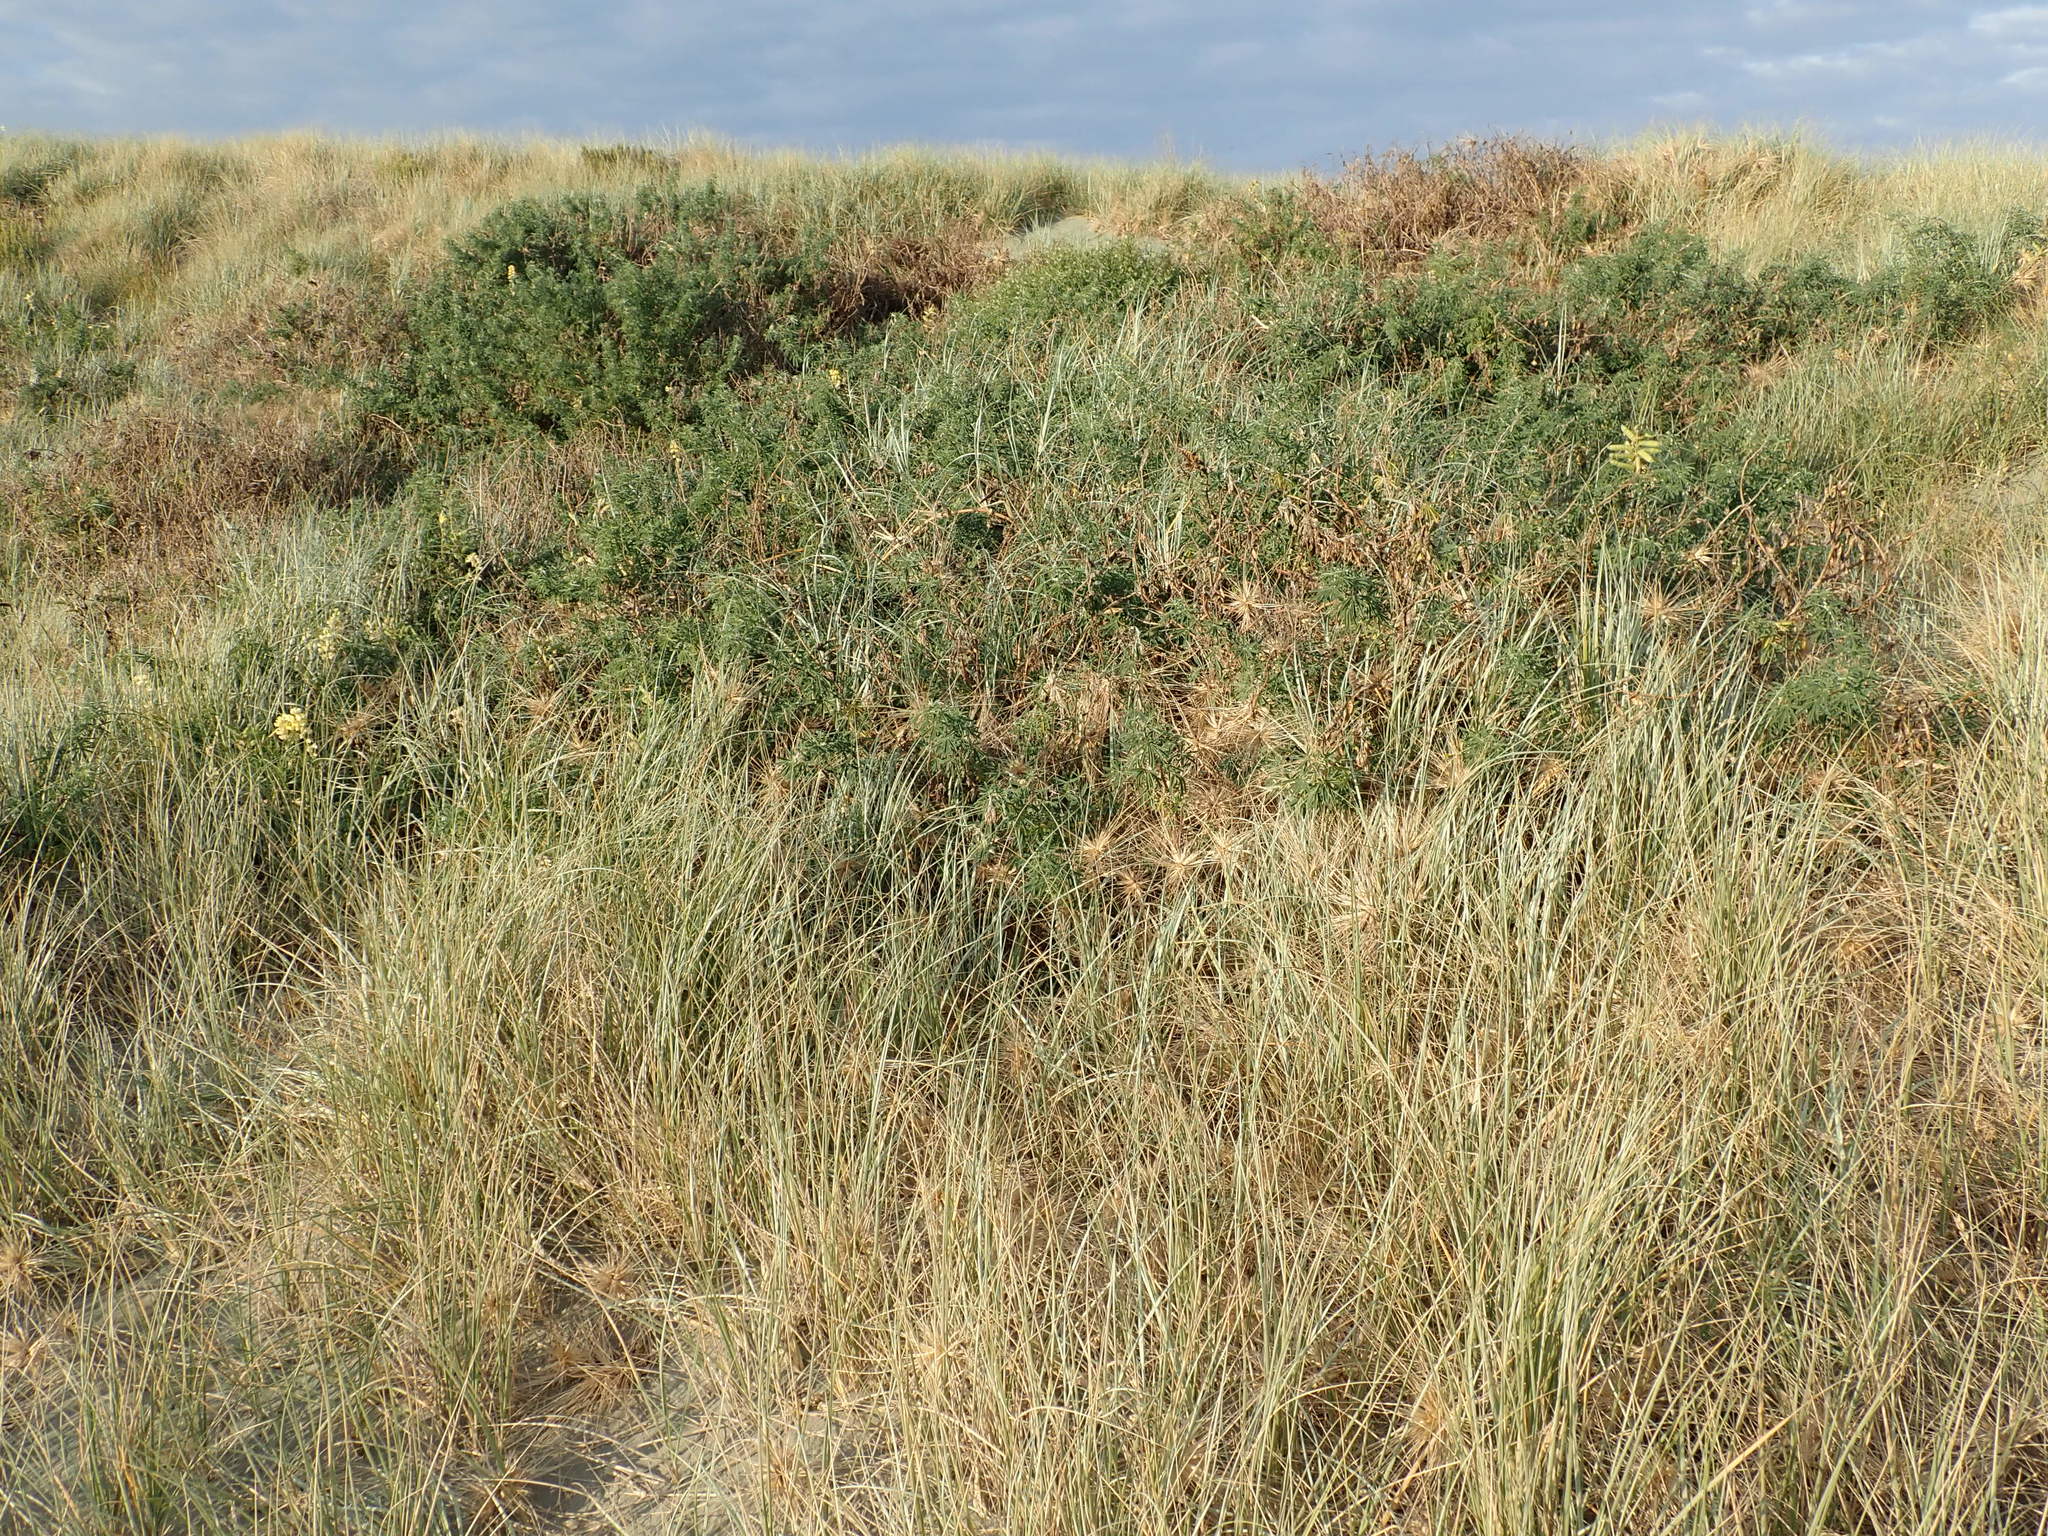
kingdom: Plantae
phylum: Tracheophyta
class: Magnoliopsida
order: Fabales
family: Fabaceae
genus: Lupinus
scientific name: Lupinus arboreus
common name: Yellow bush lupine
